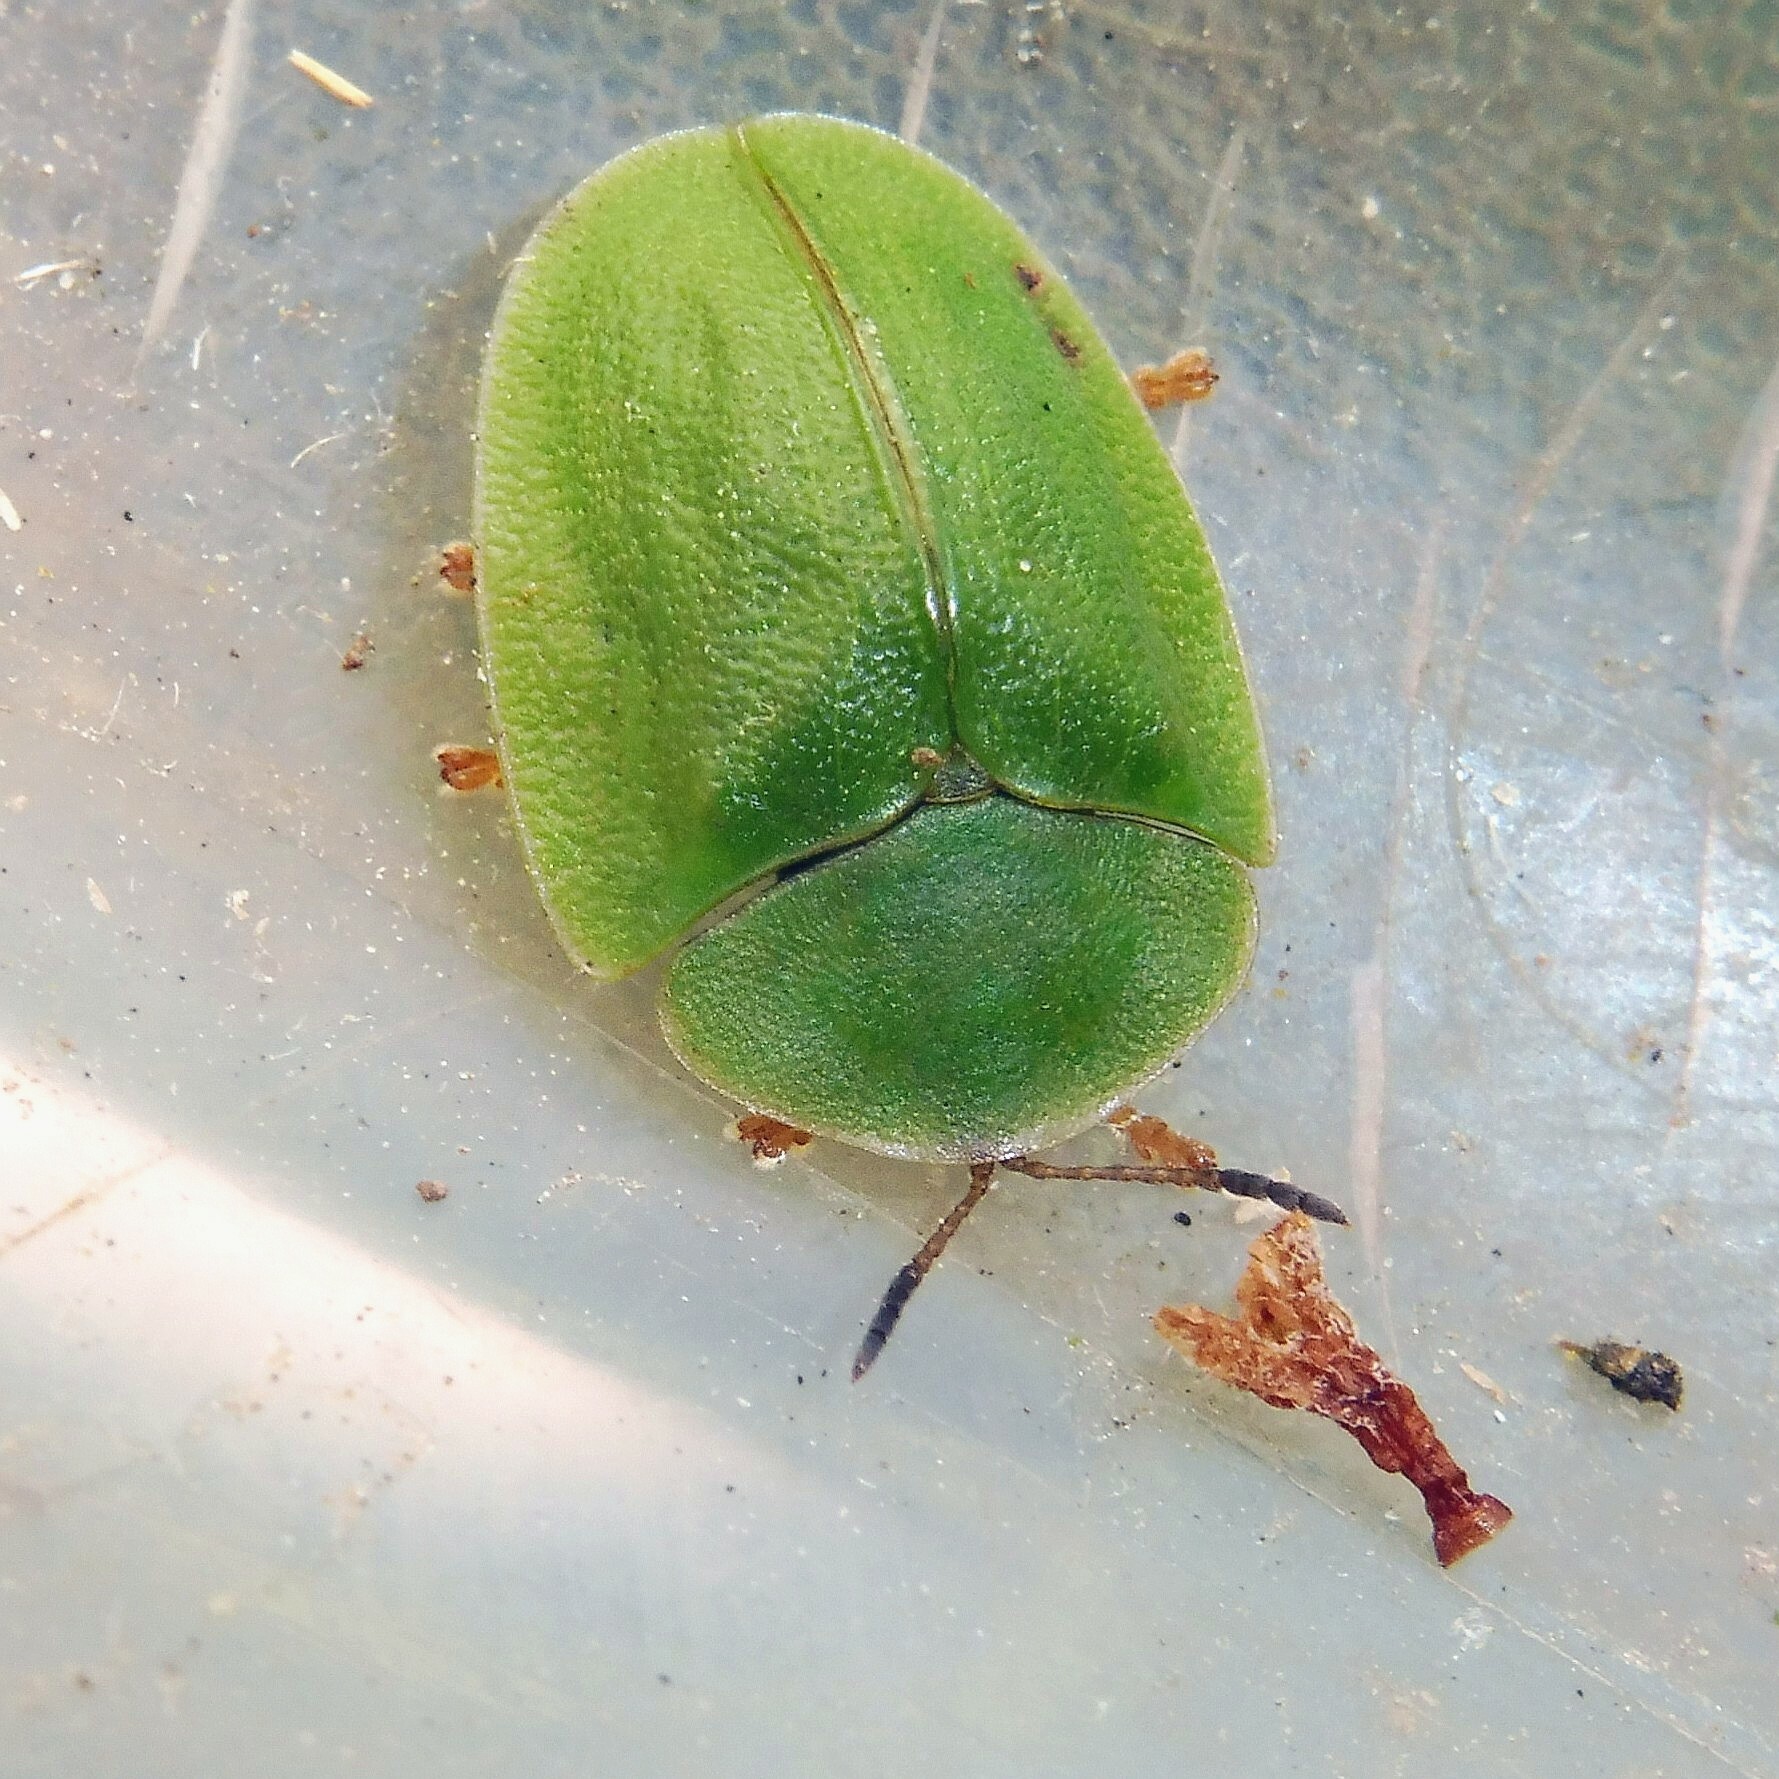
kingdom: Animalia
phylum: Arthropoda
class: Insecta
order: Coleoptera
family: Chrysomelidae
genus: Cassida
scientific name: Cassida viridis
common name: Green tortoise beetle
